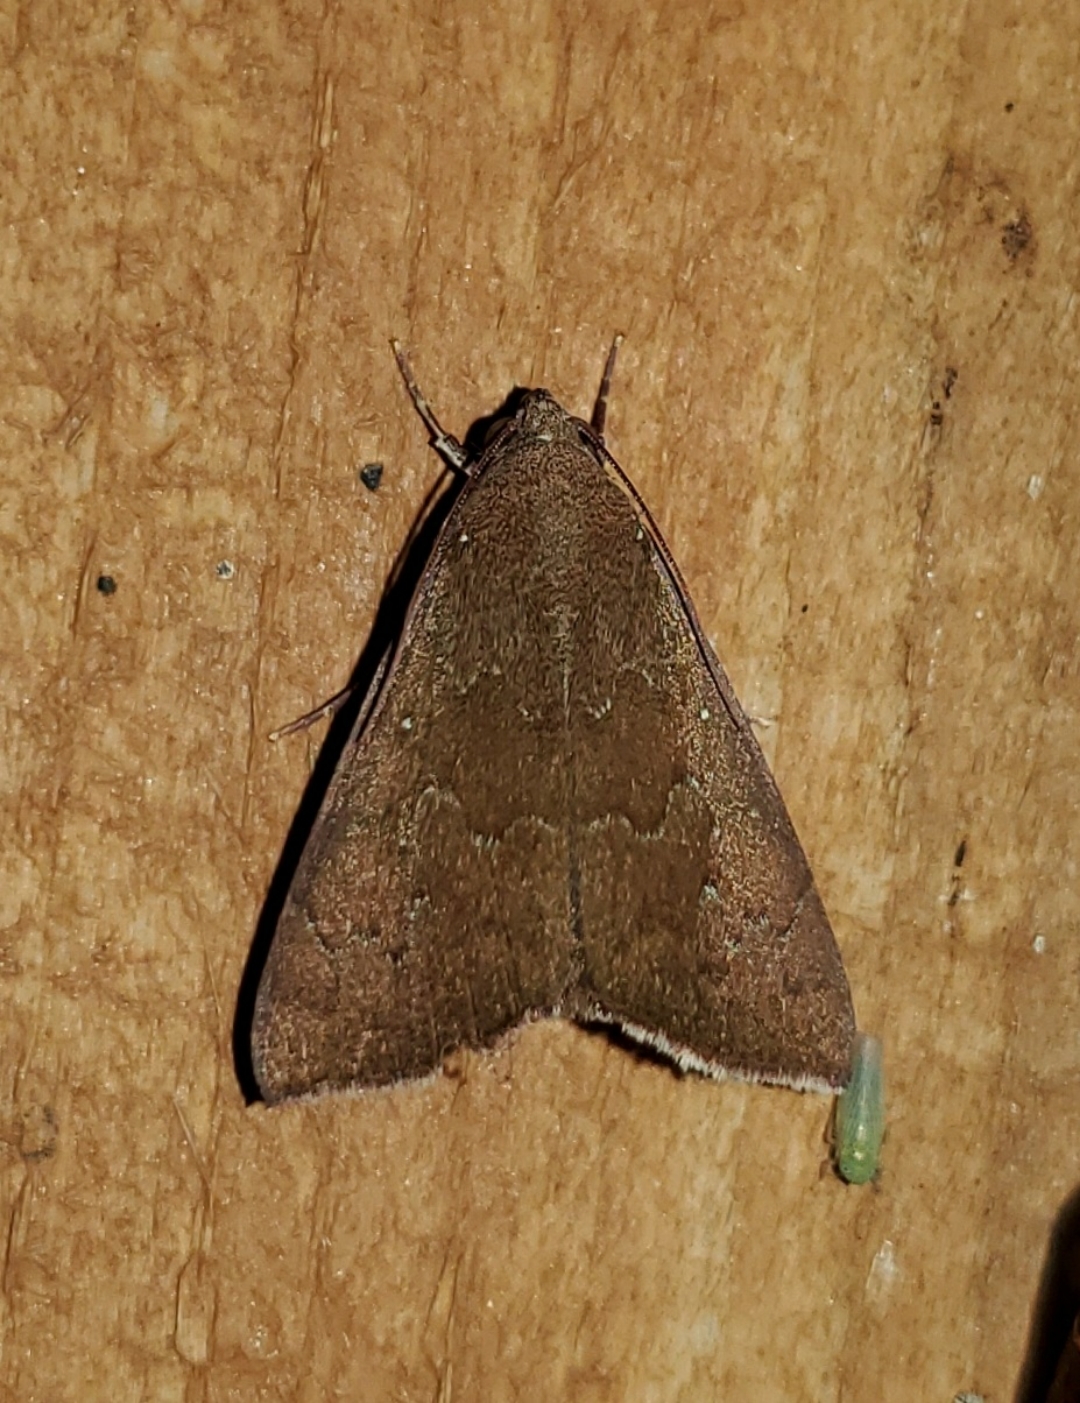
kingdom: Animalia
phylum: Arthropoda
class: Insecta
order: Lepidoptera
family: Erebidae
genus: Anomis
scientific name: Anomis illita
